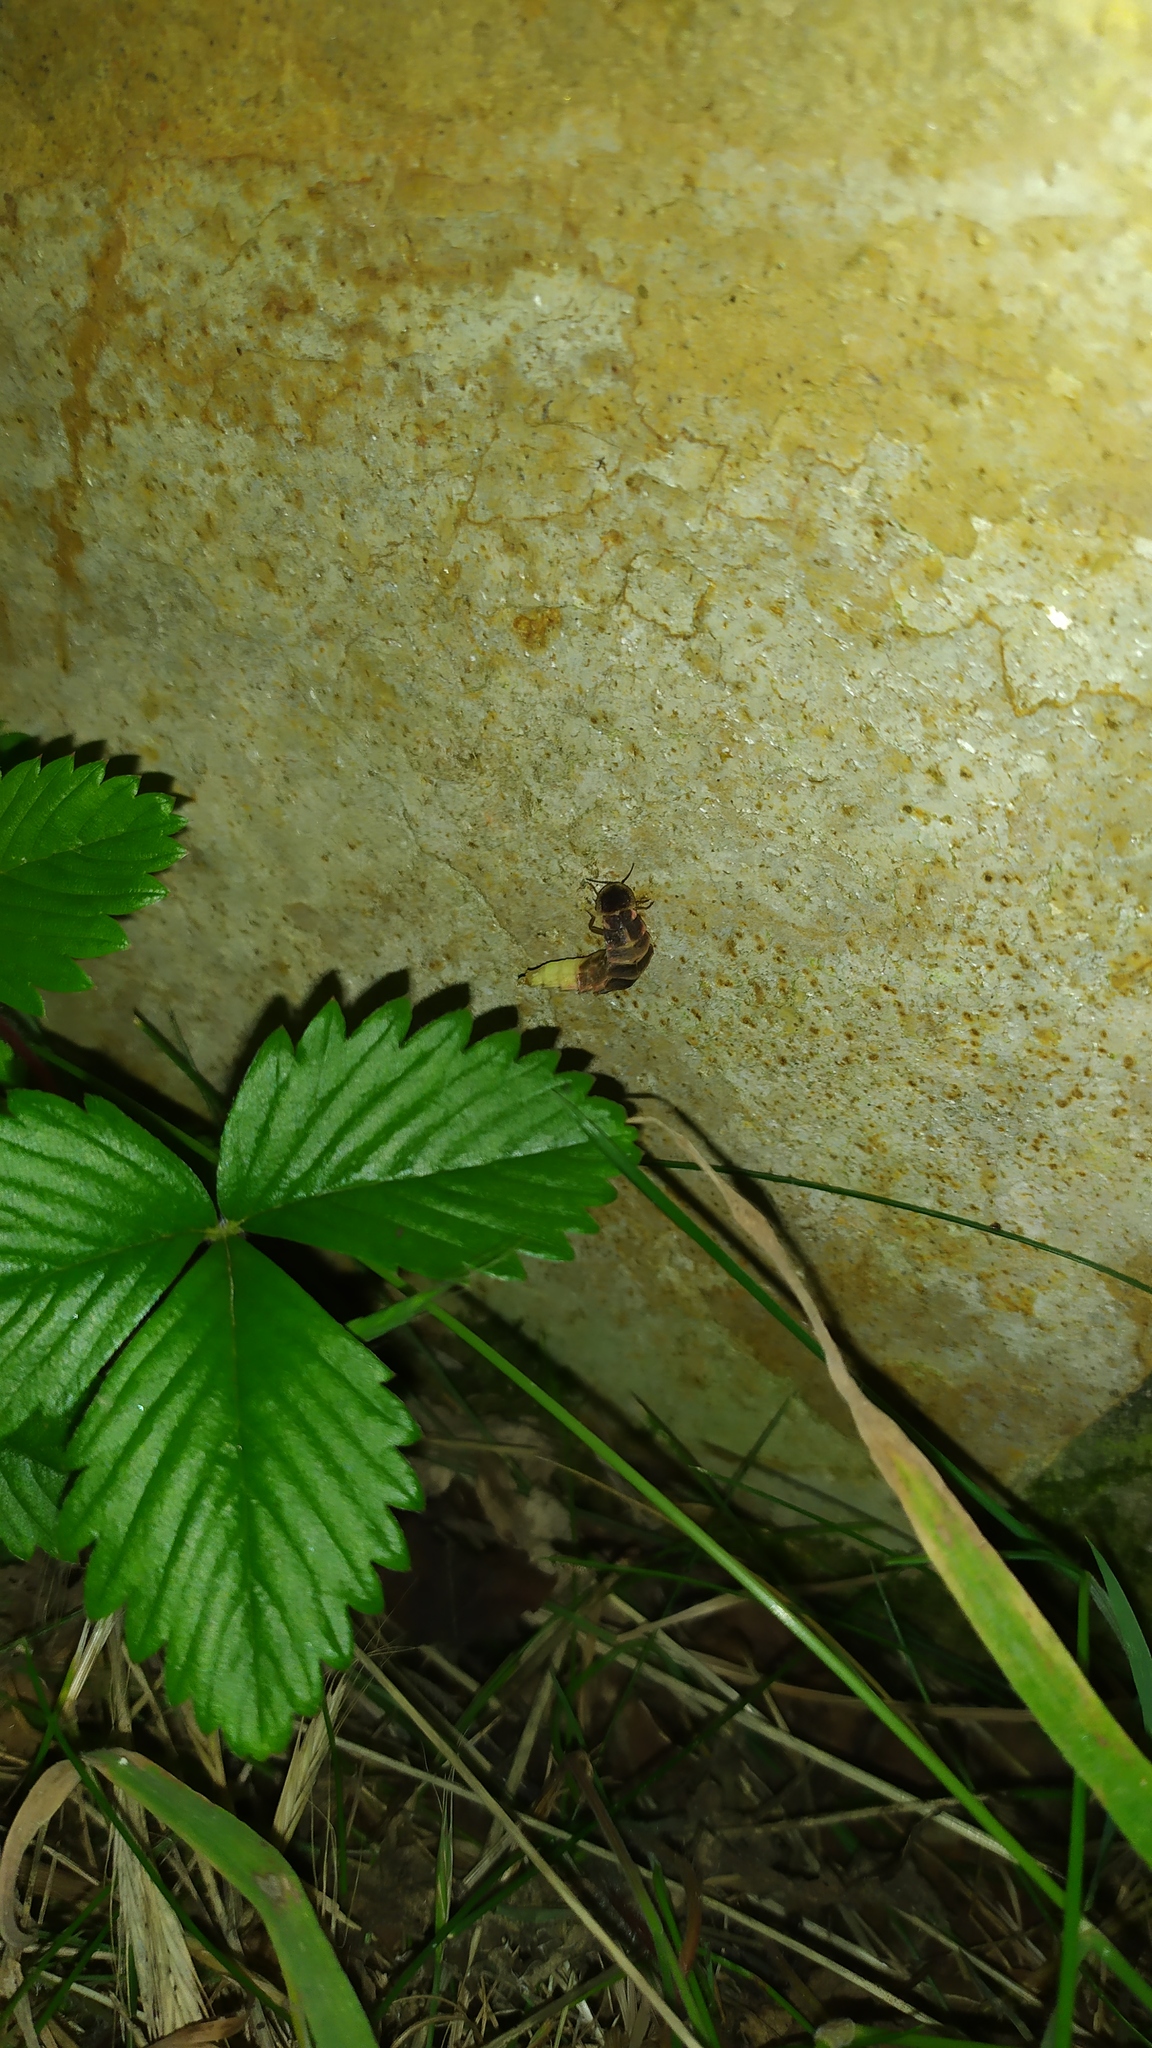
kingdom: Animalia
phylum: Arthropoda
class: Insecta
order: Coleoptera
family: Lampyridae
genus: Lampyris
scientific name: Lampyris noctiluca
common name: Glow-worm
